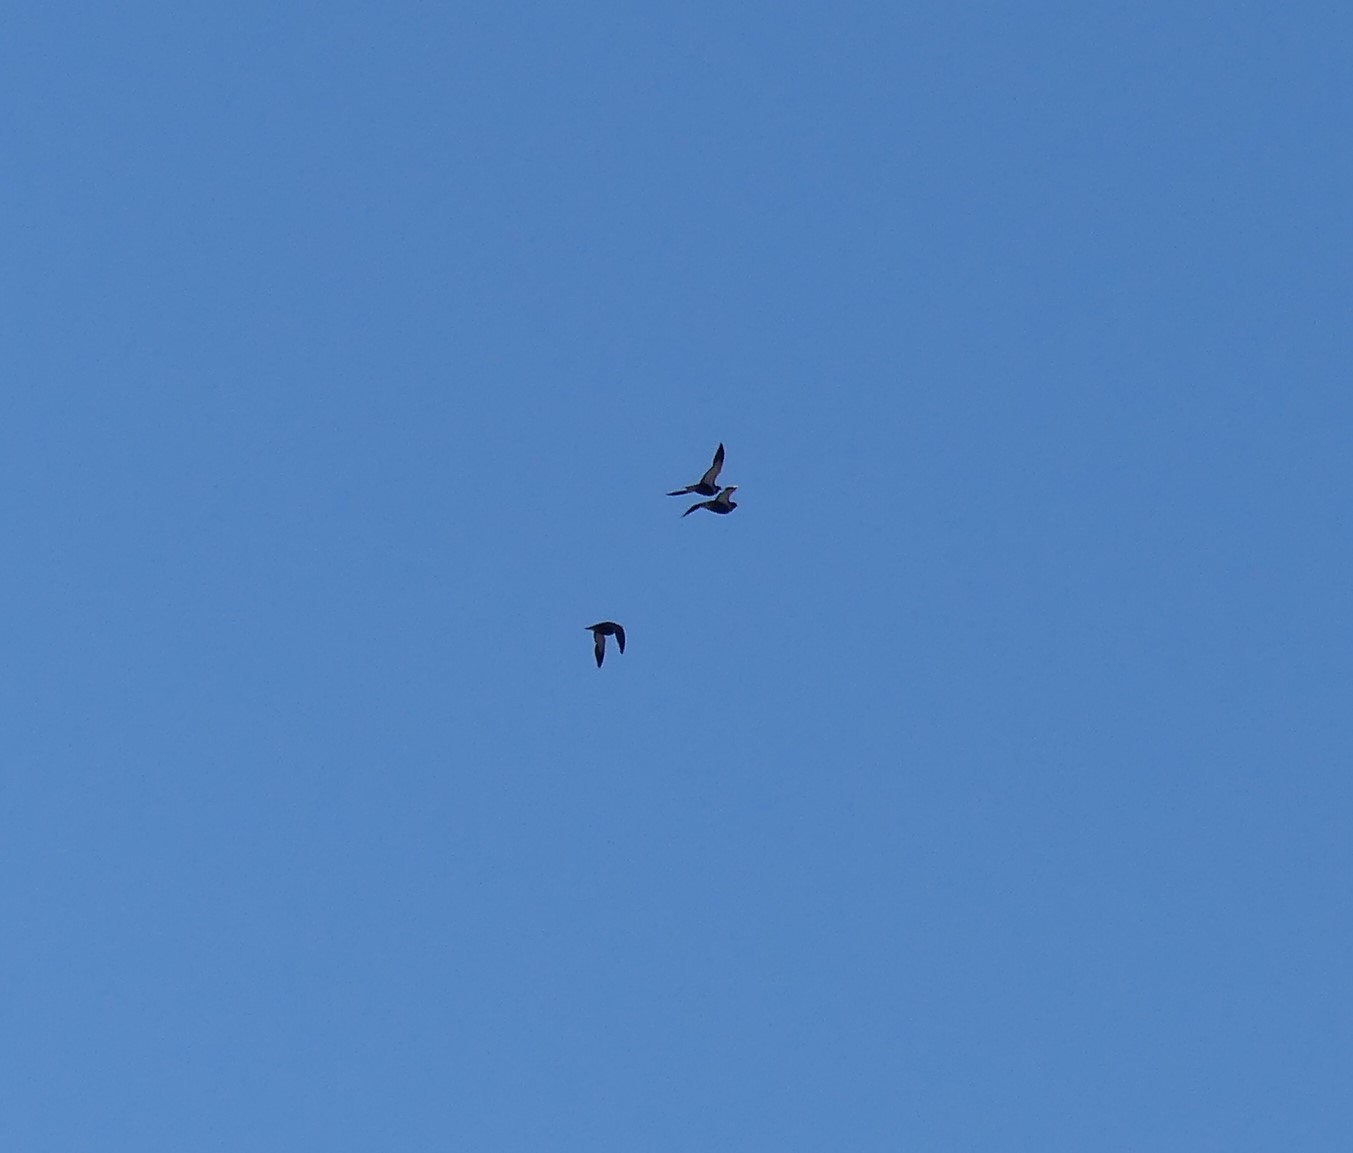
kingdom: Animalia
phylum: Chordata
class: Aves
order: Pteroclidiformes
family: Pteroclididae
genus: Pterocles
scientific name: Pterocles orientalis
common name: Black-bellied sandgrouse
